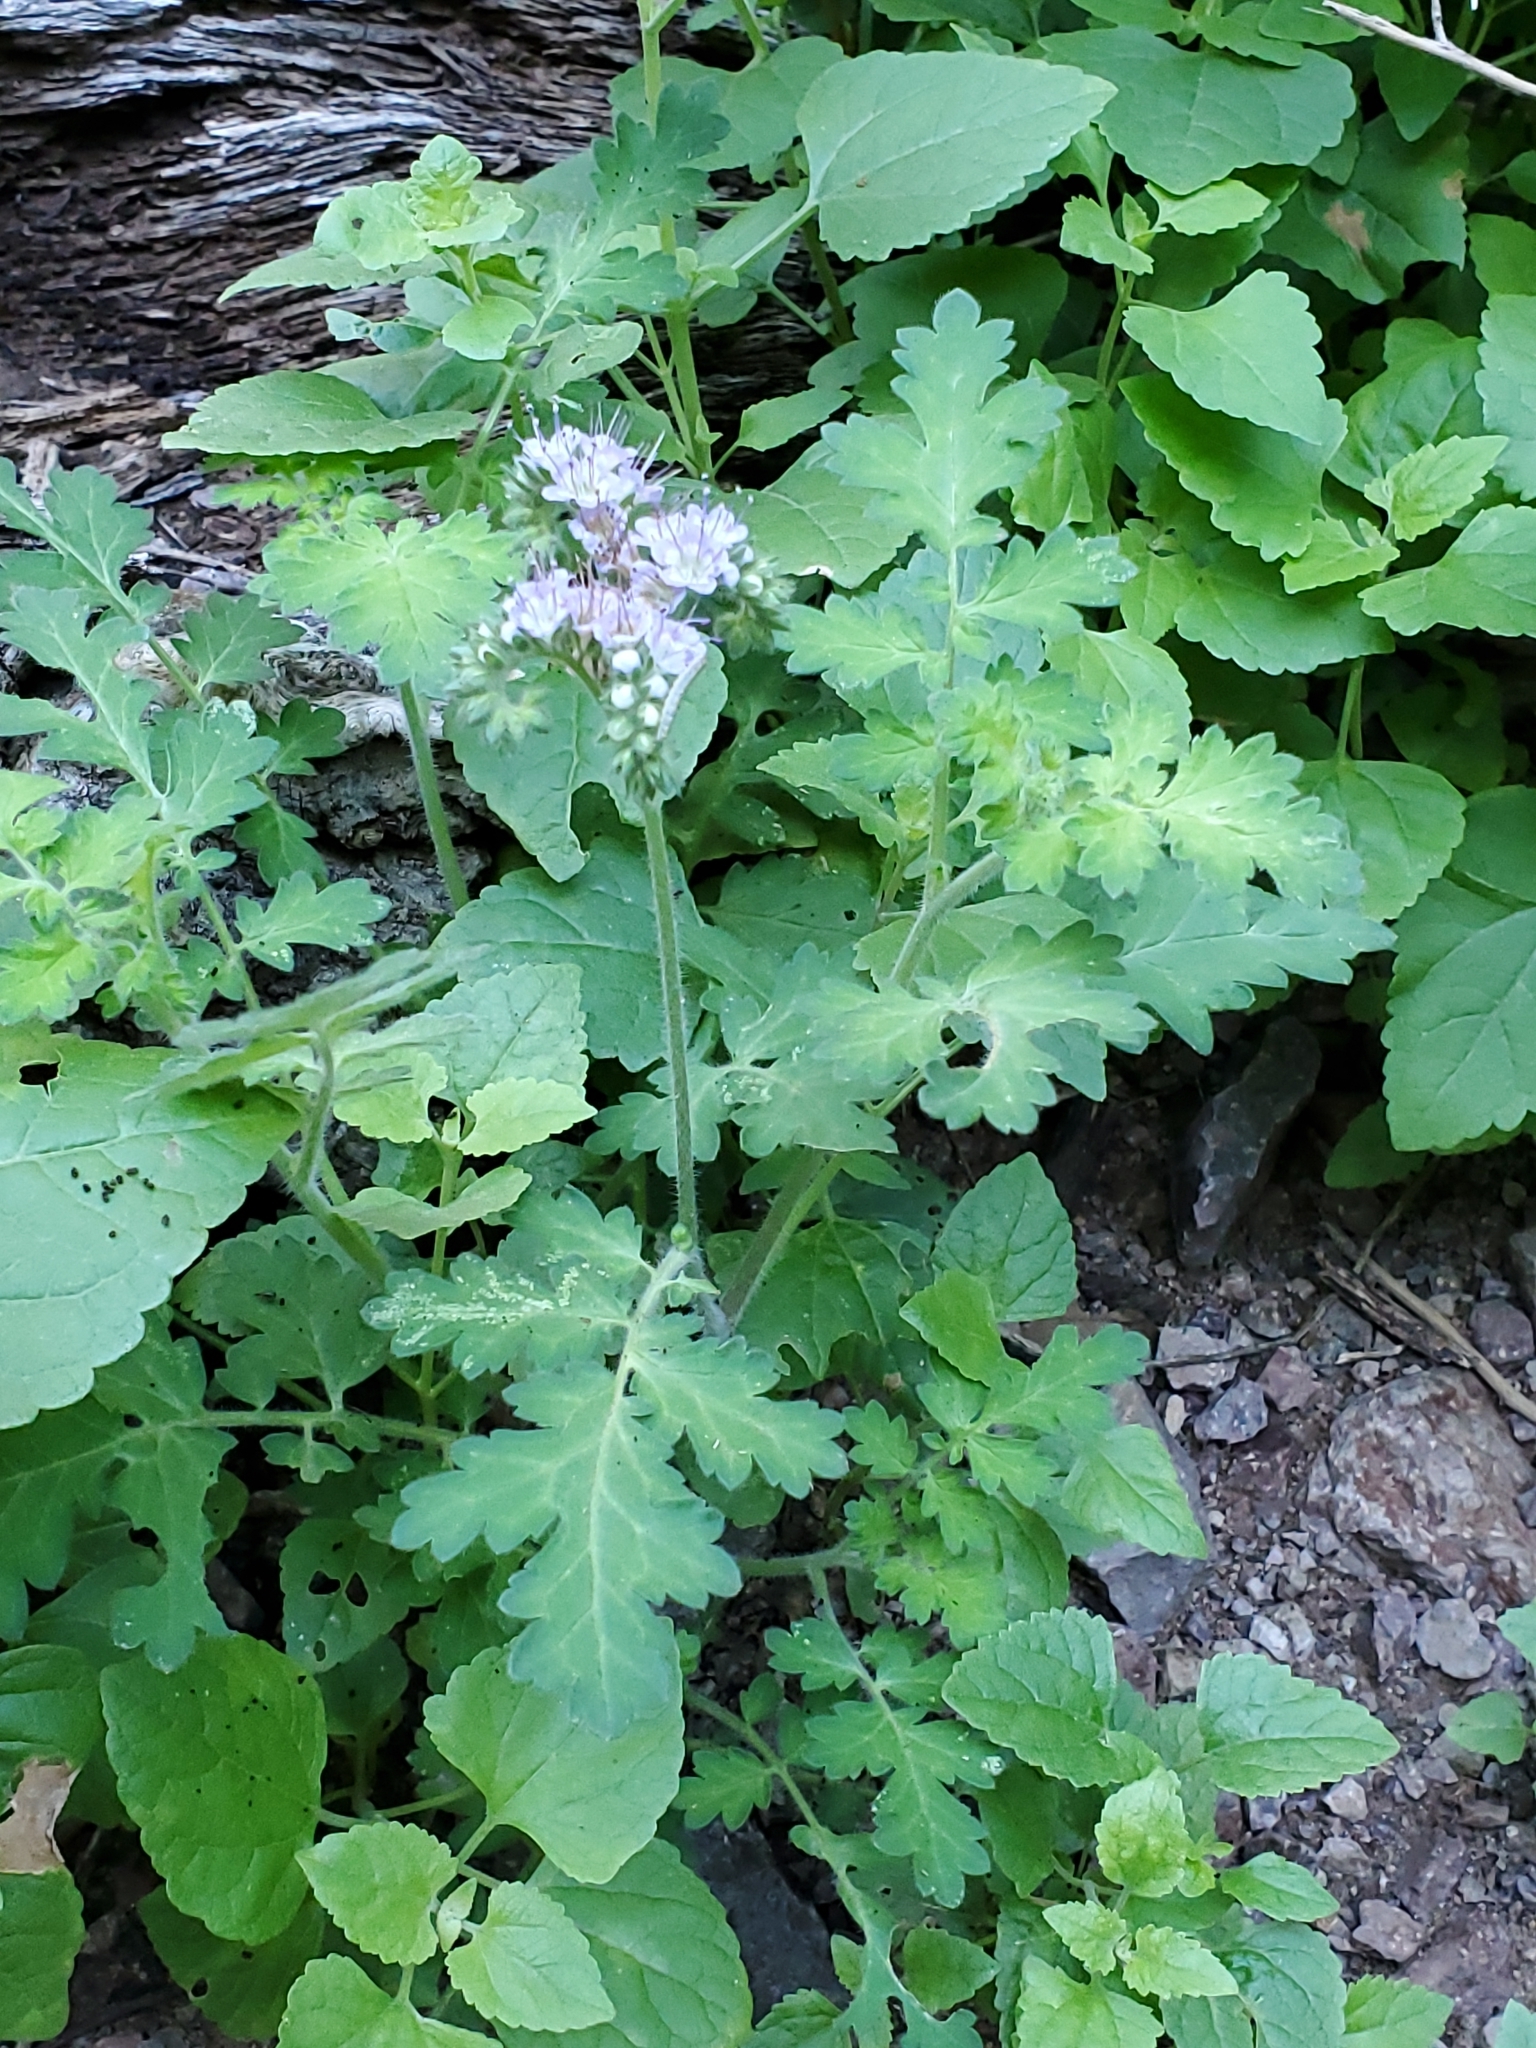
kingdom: Plantae
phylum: Tracheophyta
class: Magnoliopsida
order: Boraginales
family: Hydrophyllaceae
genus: Phacelia
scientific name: Phacelia rupestris
